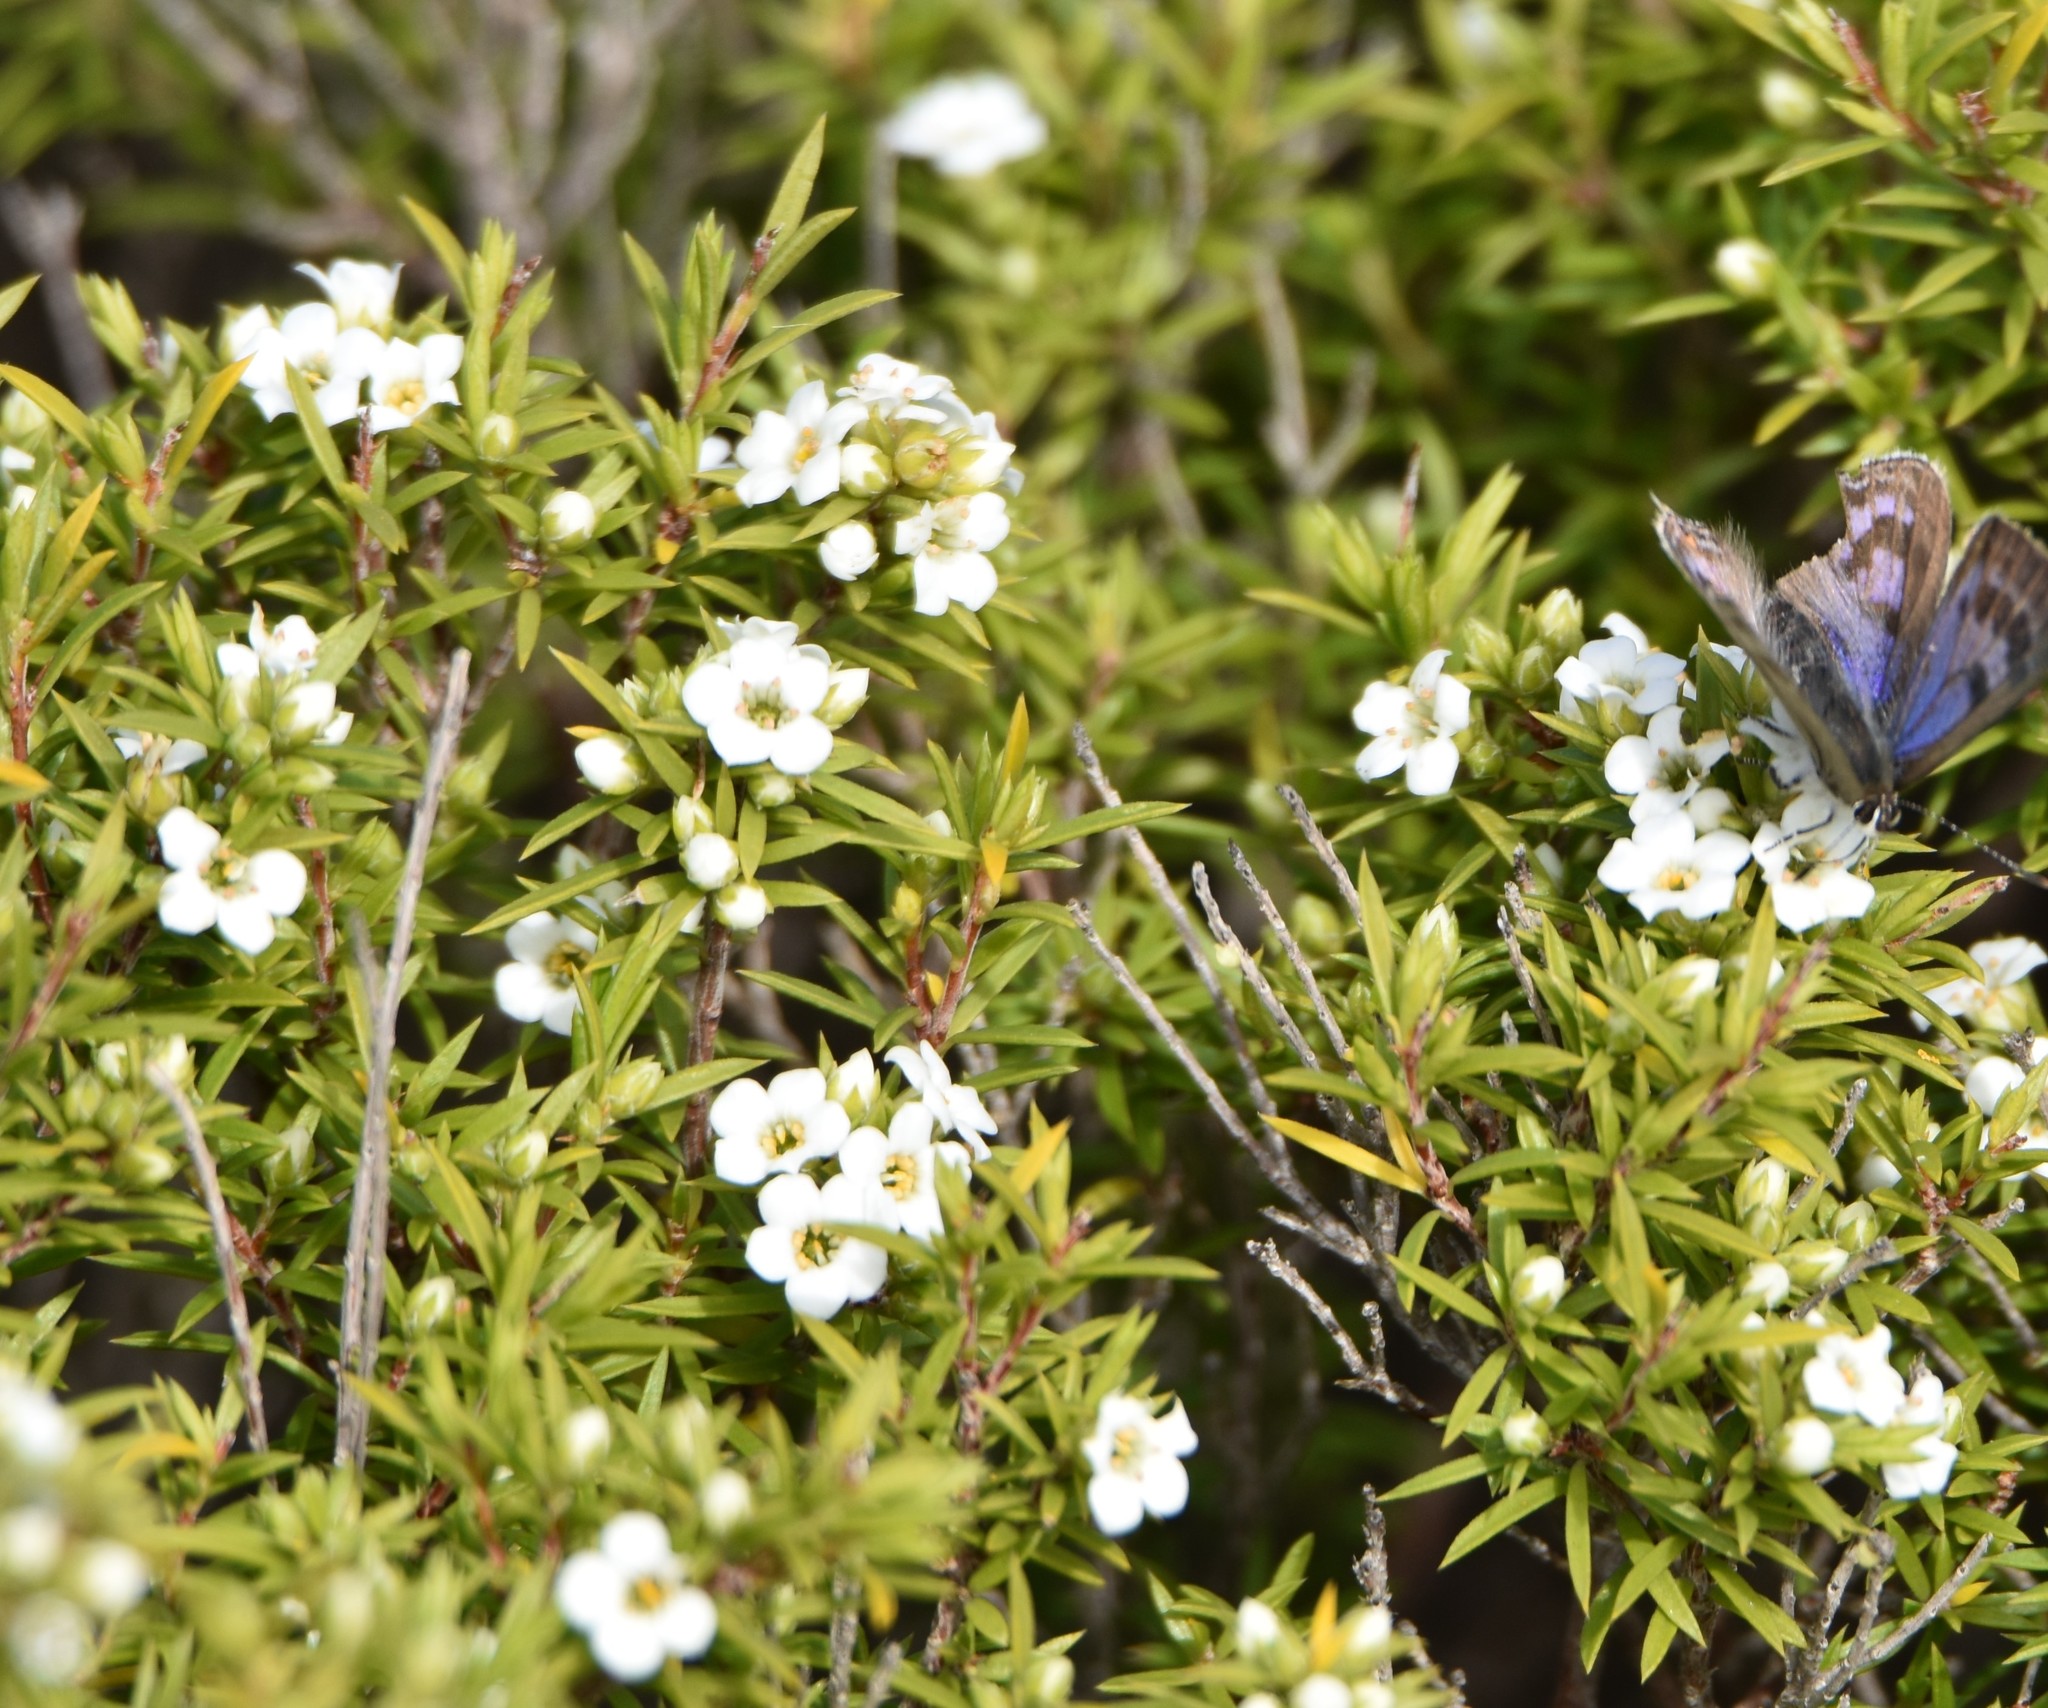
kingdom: Plantae
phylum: Tracheophyta
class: Magnoliopsida
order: Sapindales
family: Rutaceae
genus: Coleonema
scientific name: Coleonema album
